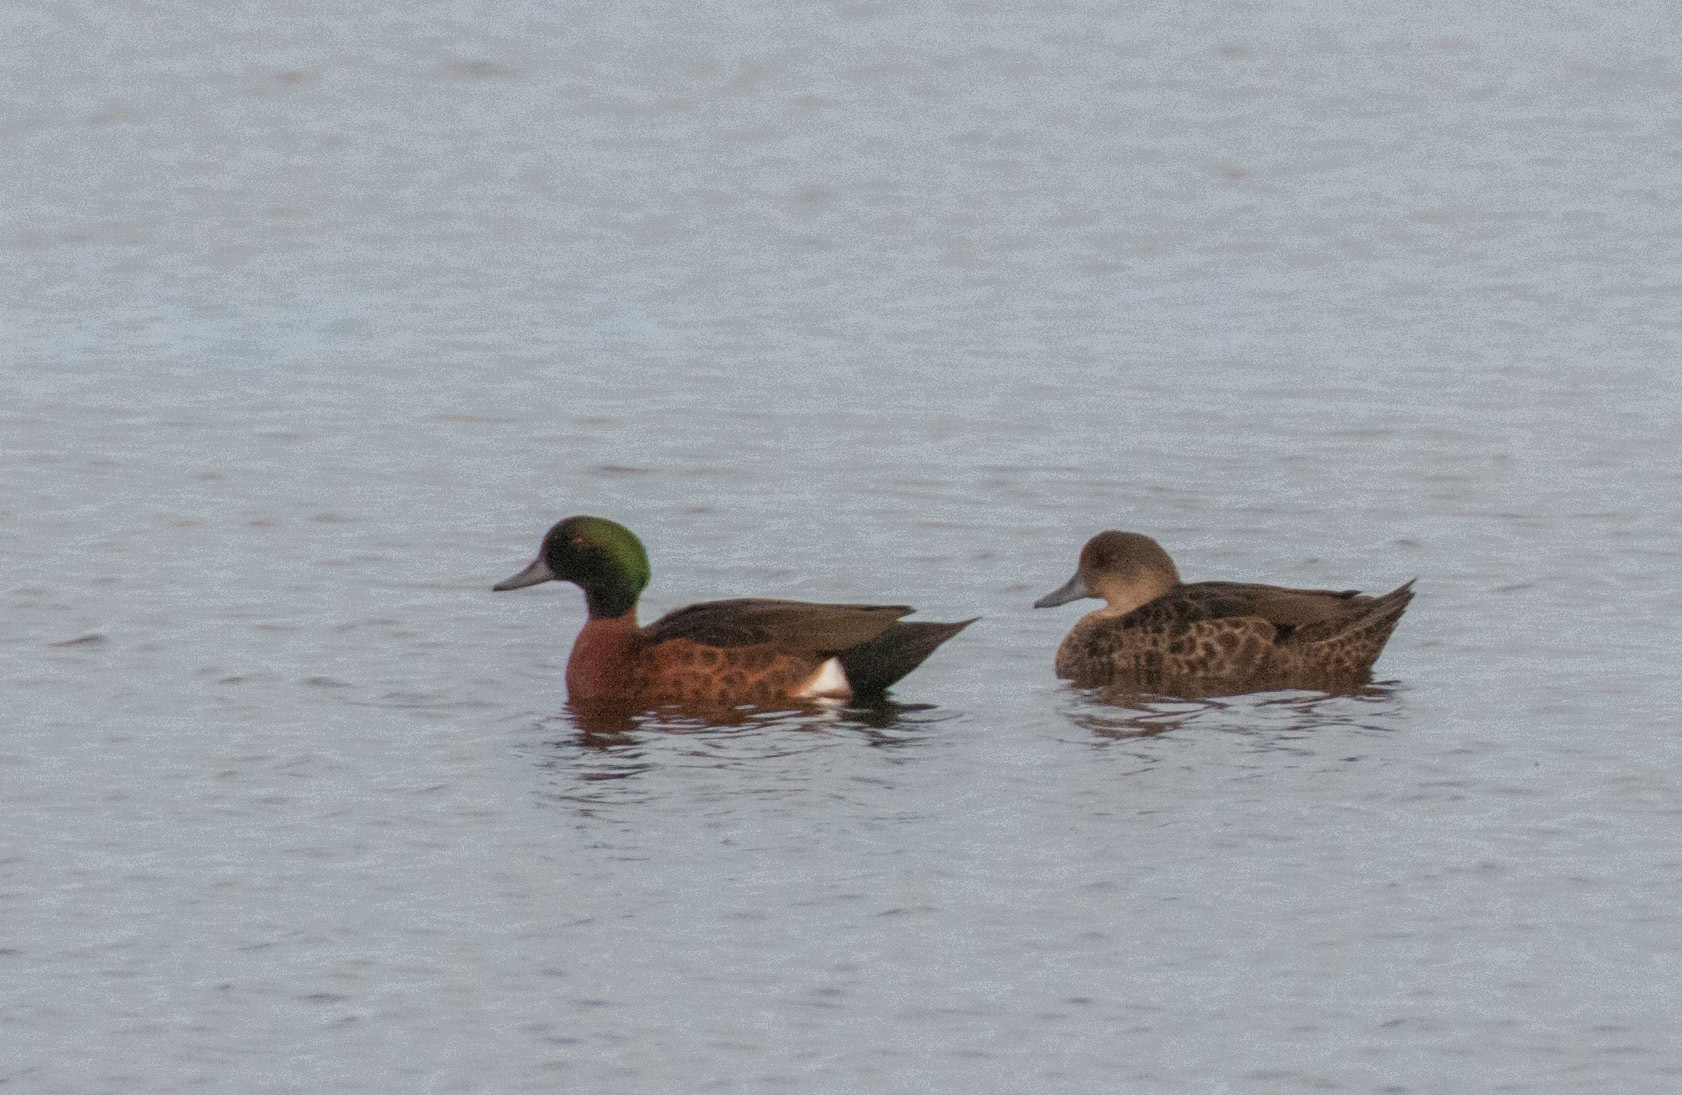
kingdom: Animalia
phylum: Chordata
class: Aves
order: Anseriformes
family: Anatidae
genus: Anas
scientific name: Anas castanea
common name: Chestnut teal
